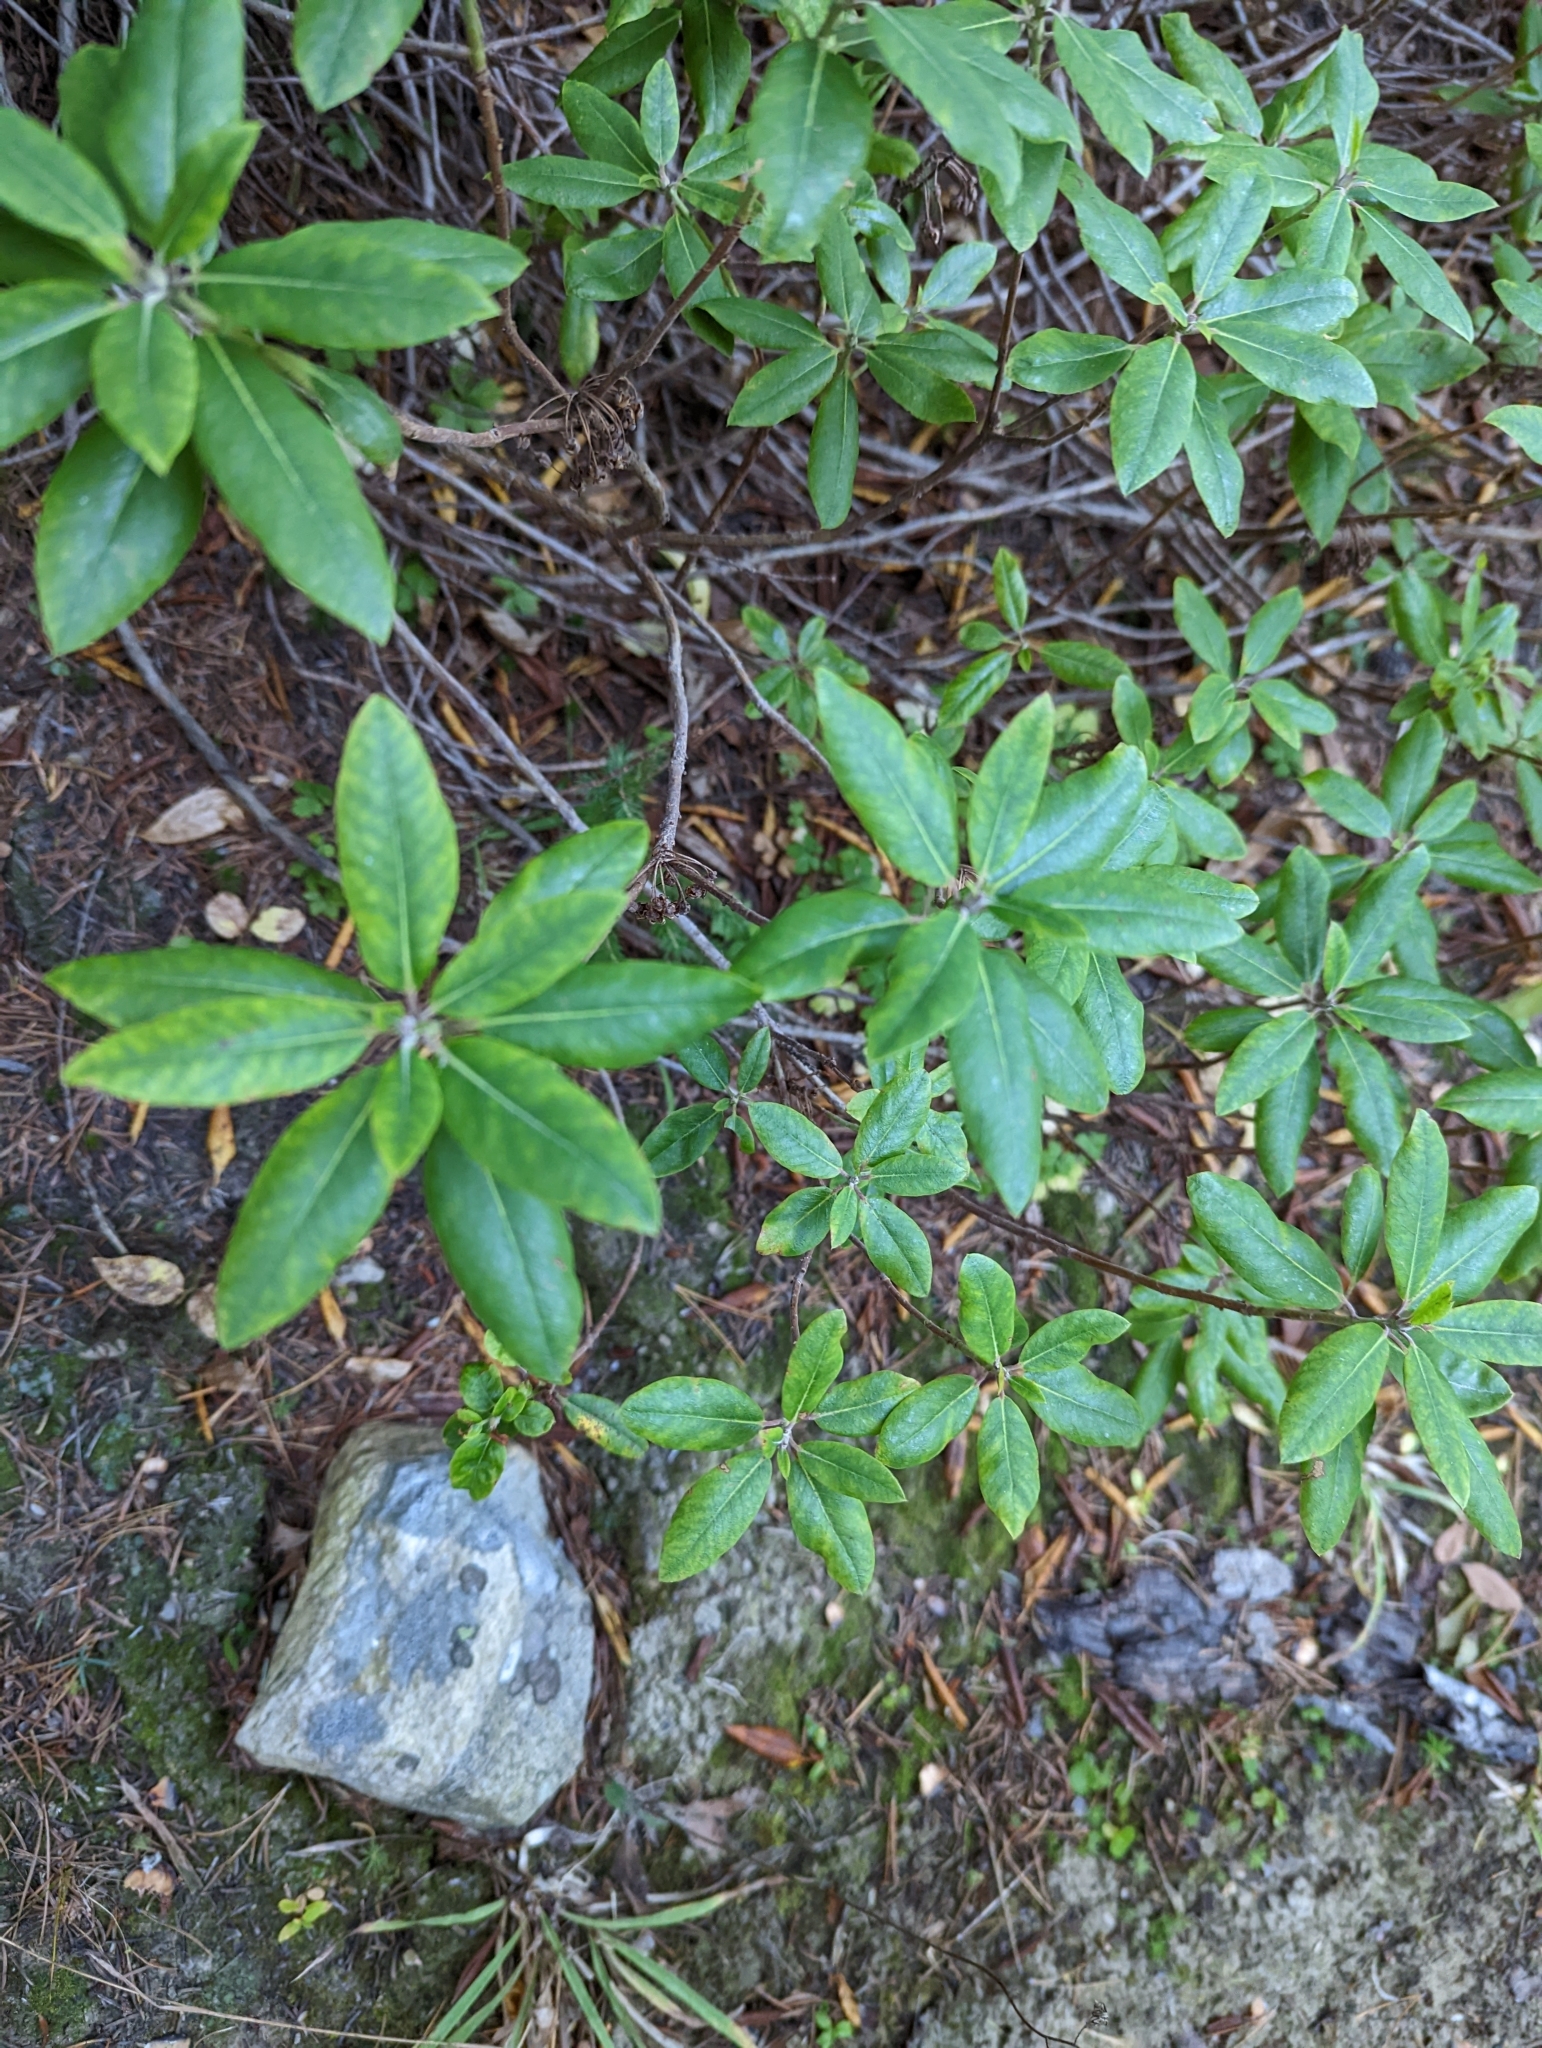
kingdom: Plantae
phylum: Tracheophyta
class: Magnoliopsida
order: Ericales
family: Ericaceae
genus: Rhododendron
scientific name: Rhododendron columbianum
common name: Western labrador tea
